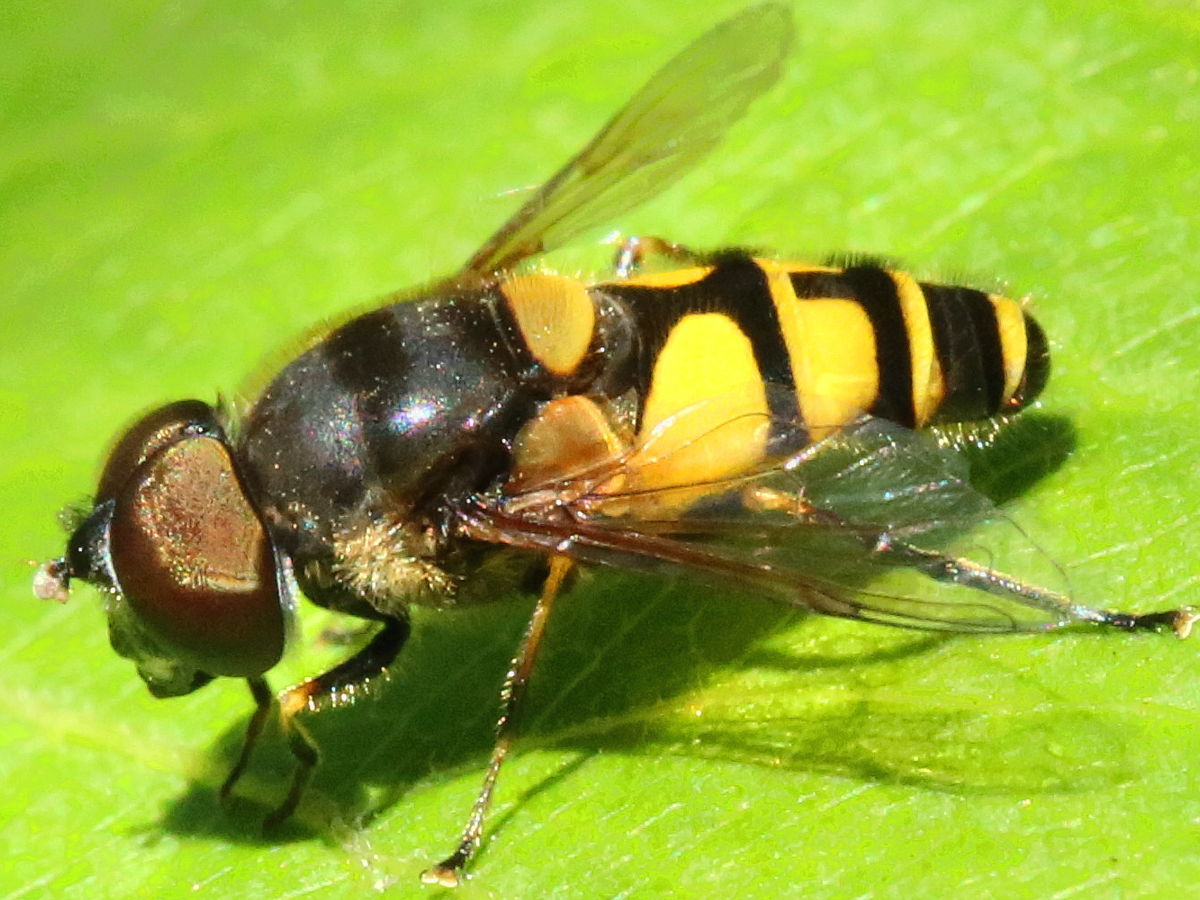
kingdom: Animalia
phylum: Arthropoda
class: Insecta
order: Diptera
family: Syrphidae
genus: Eristalis
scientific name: Eristalis transversa
